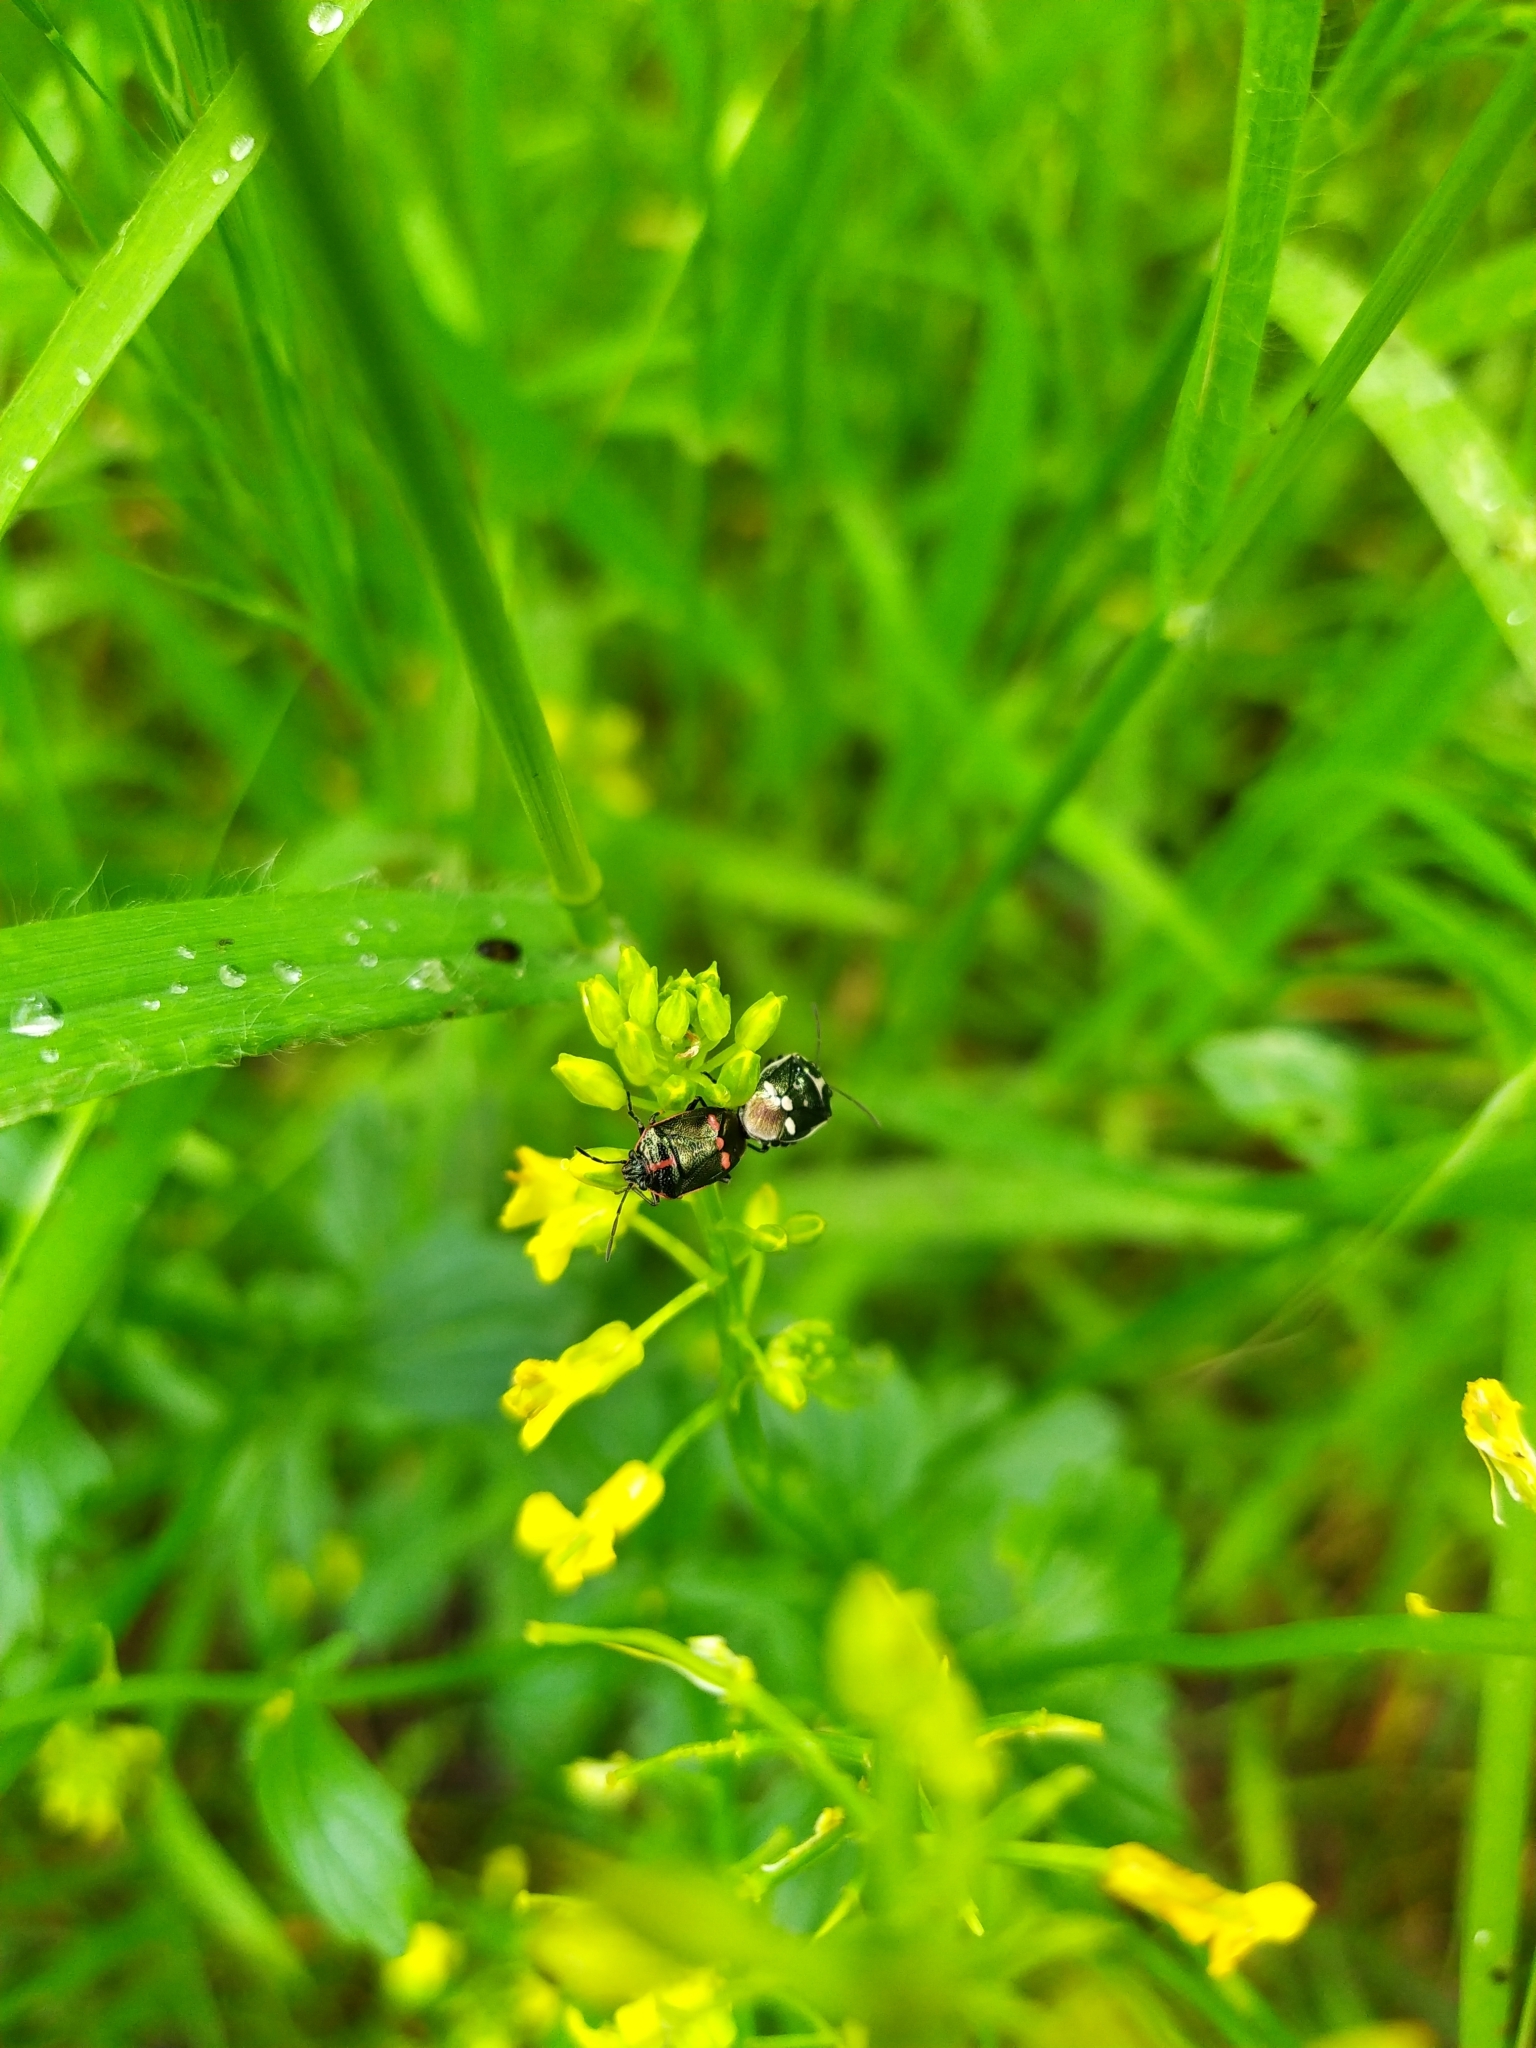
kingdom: Animalia
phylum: Arthropoda
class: Insecta
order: Hemiptera
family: Pentatomidae
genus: Eurydema
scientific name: Eurydema oleracea
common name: Cabbage bug
